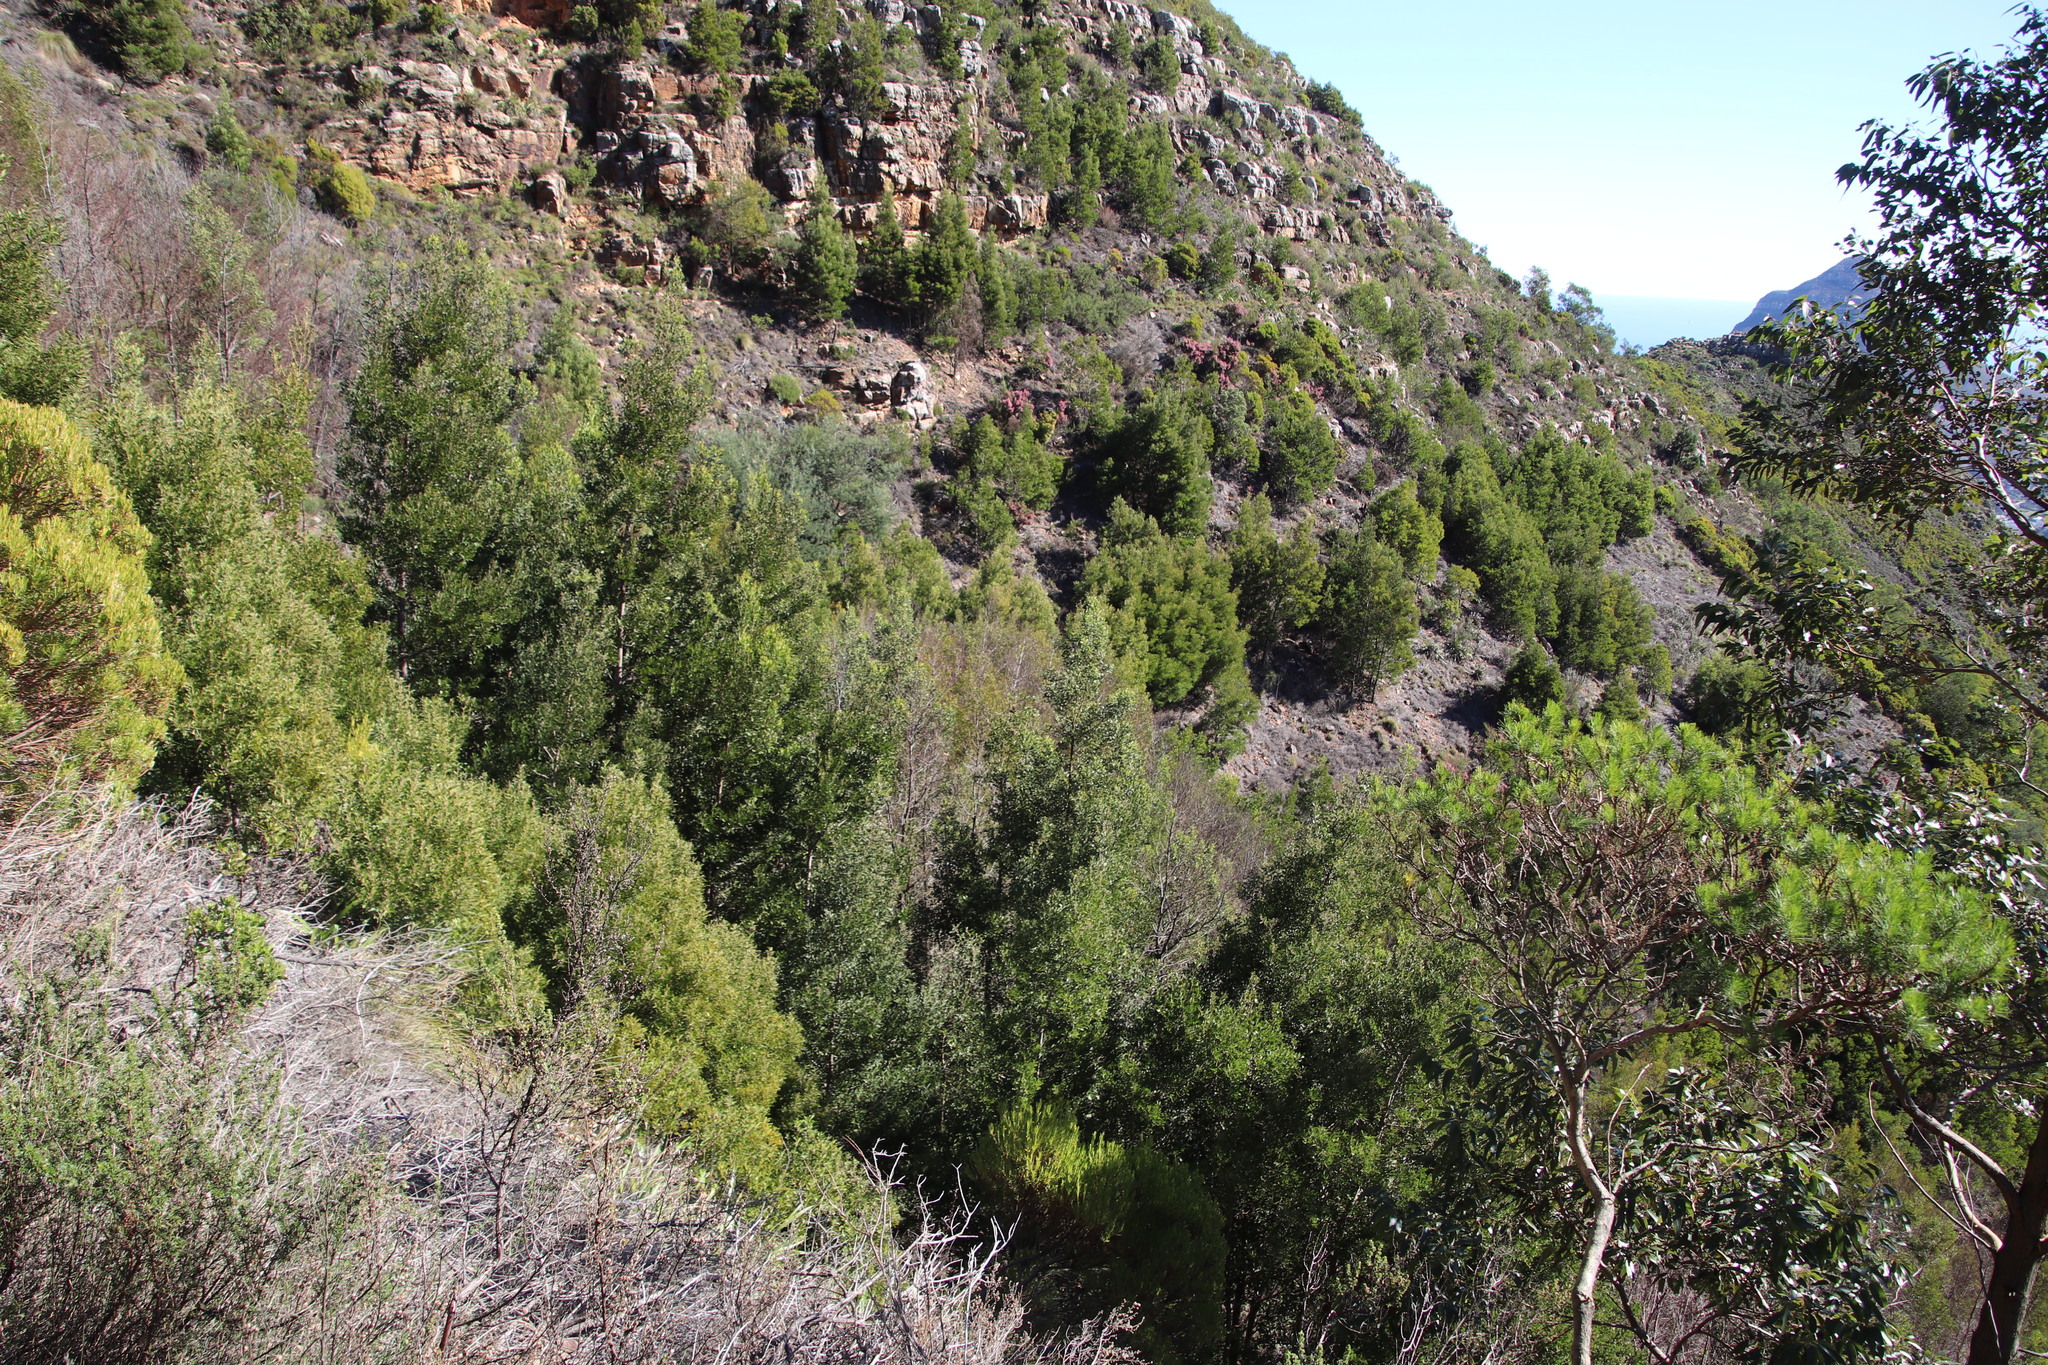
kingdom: Plantae
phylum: Tracheophyta
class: Magnoliopsida
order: Fabales
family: Fabaceae
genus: Acacia
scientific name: Acacia melanoxylon
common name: Blackwood
